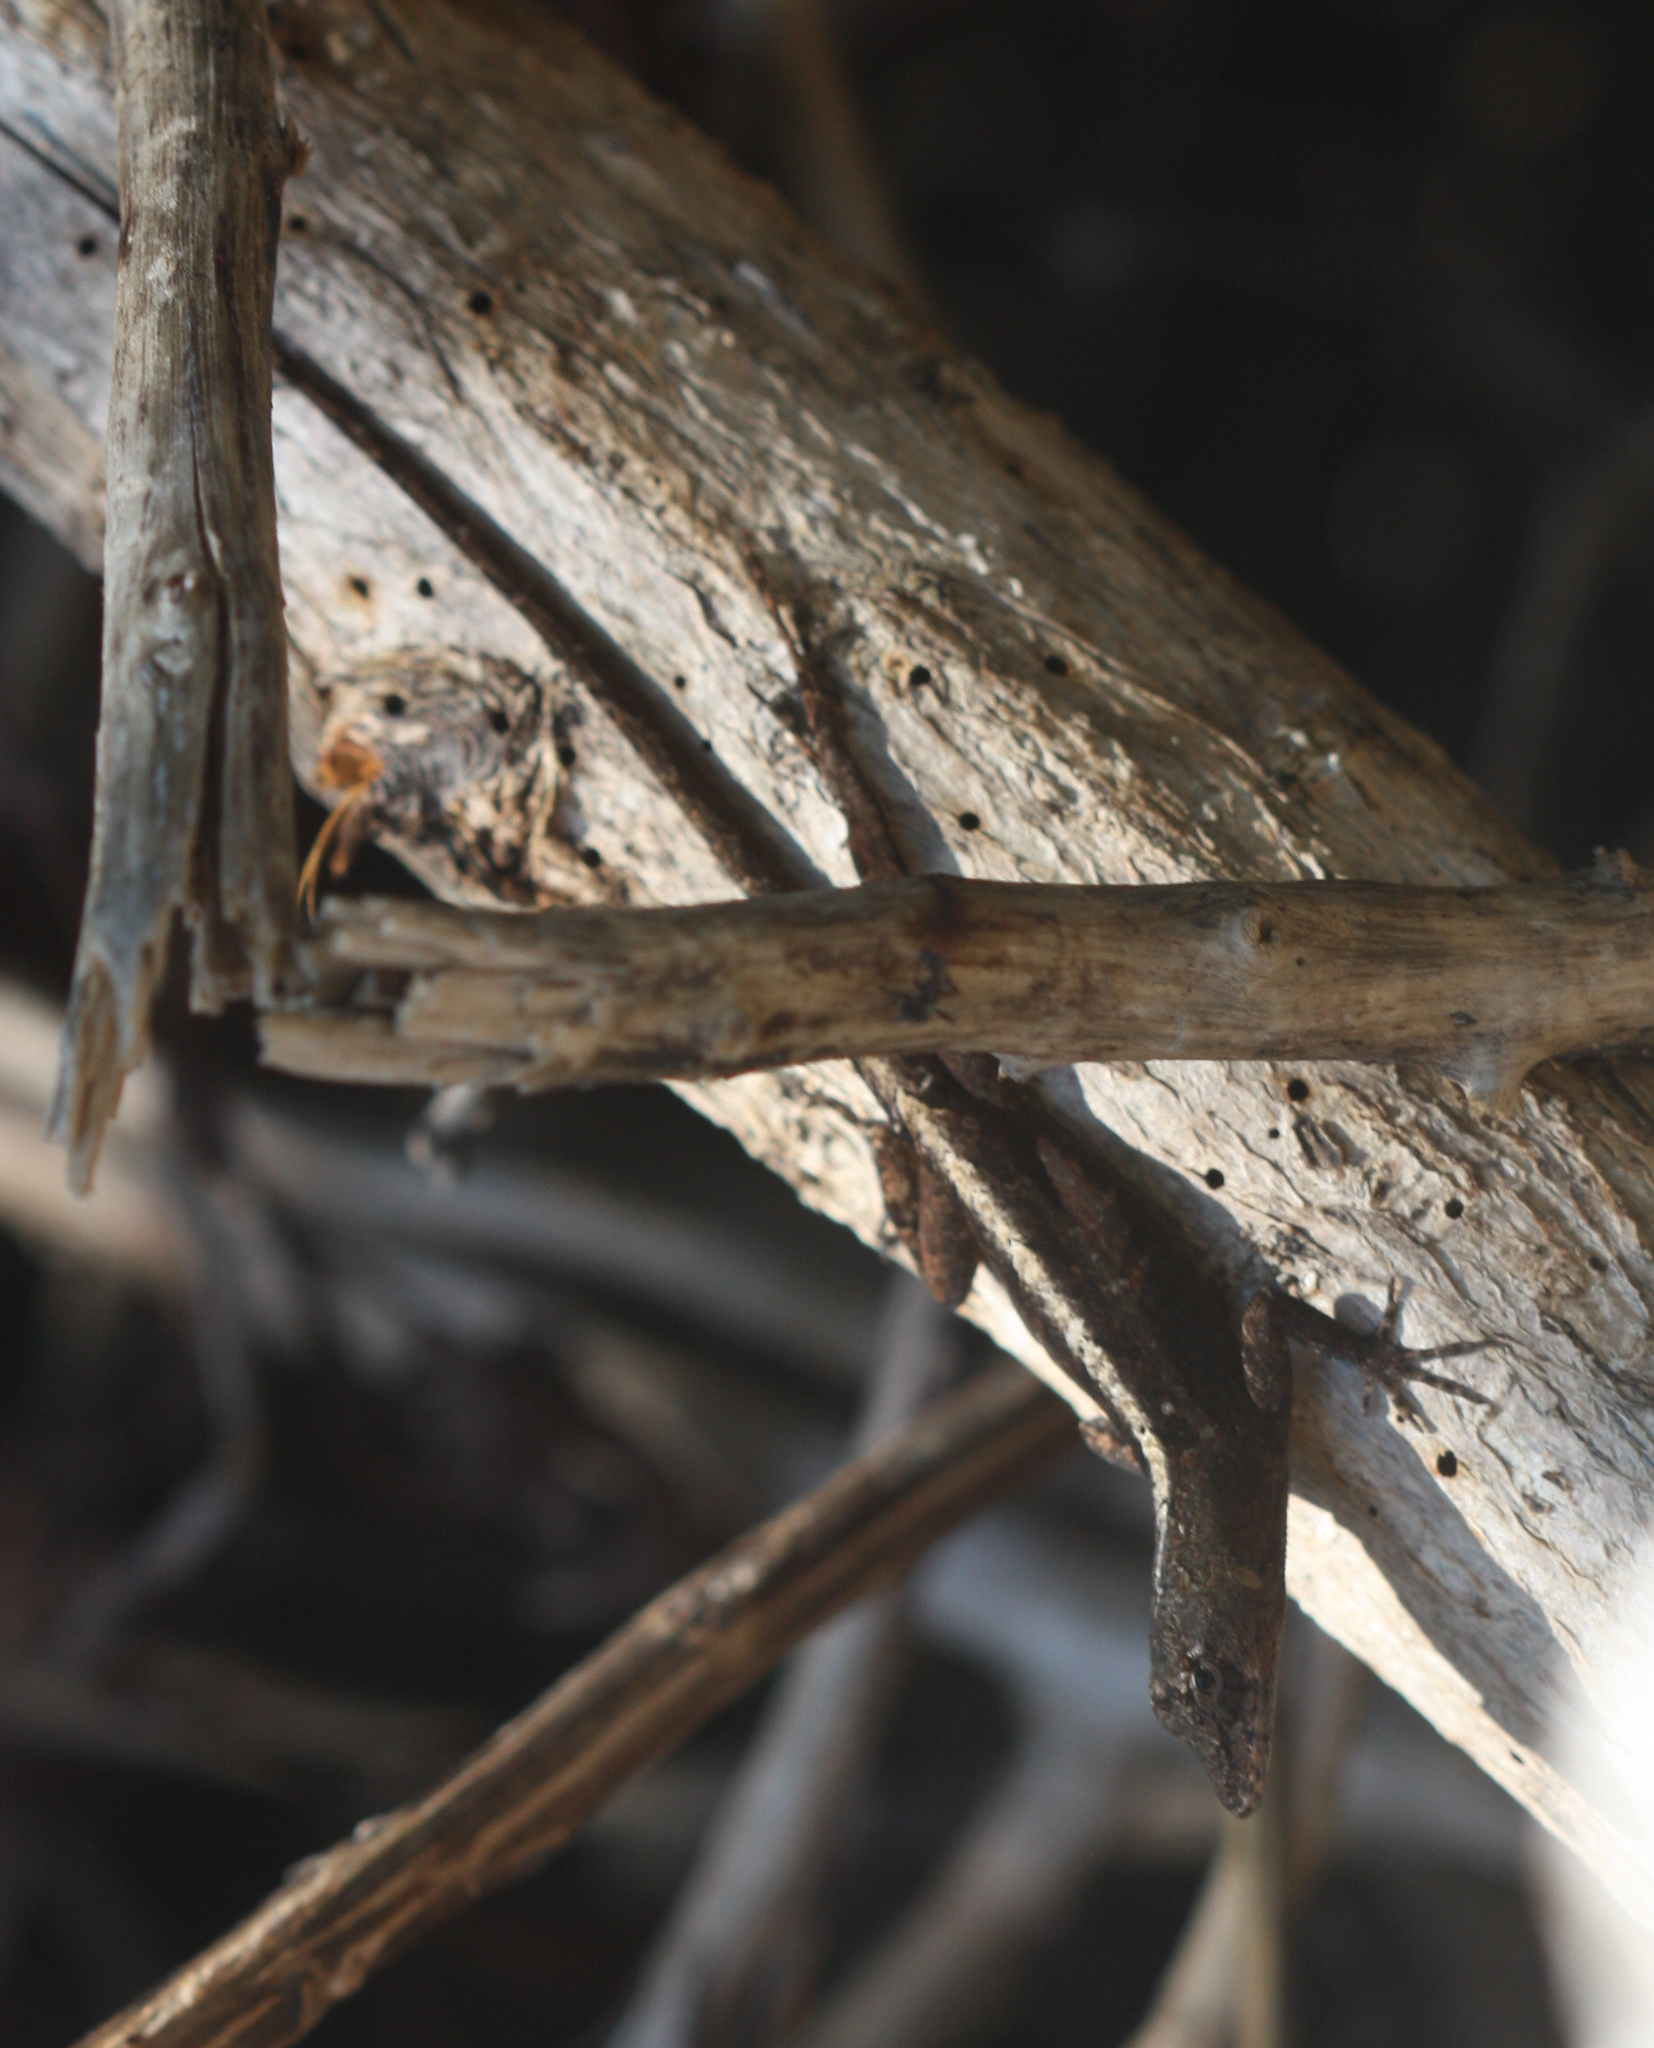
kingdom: Animalia
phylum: Chordata
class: Squamata
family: Dactyloidae
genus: Anolis
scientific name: Anolis sagrei
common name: Brown anole
